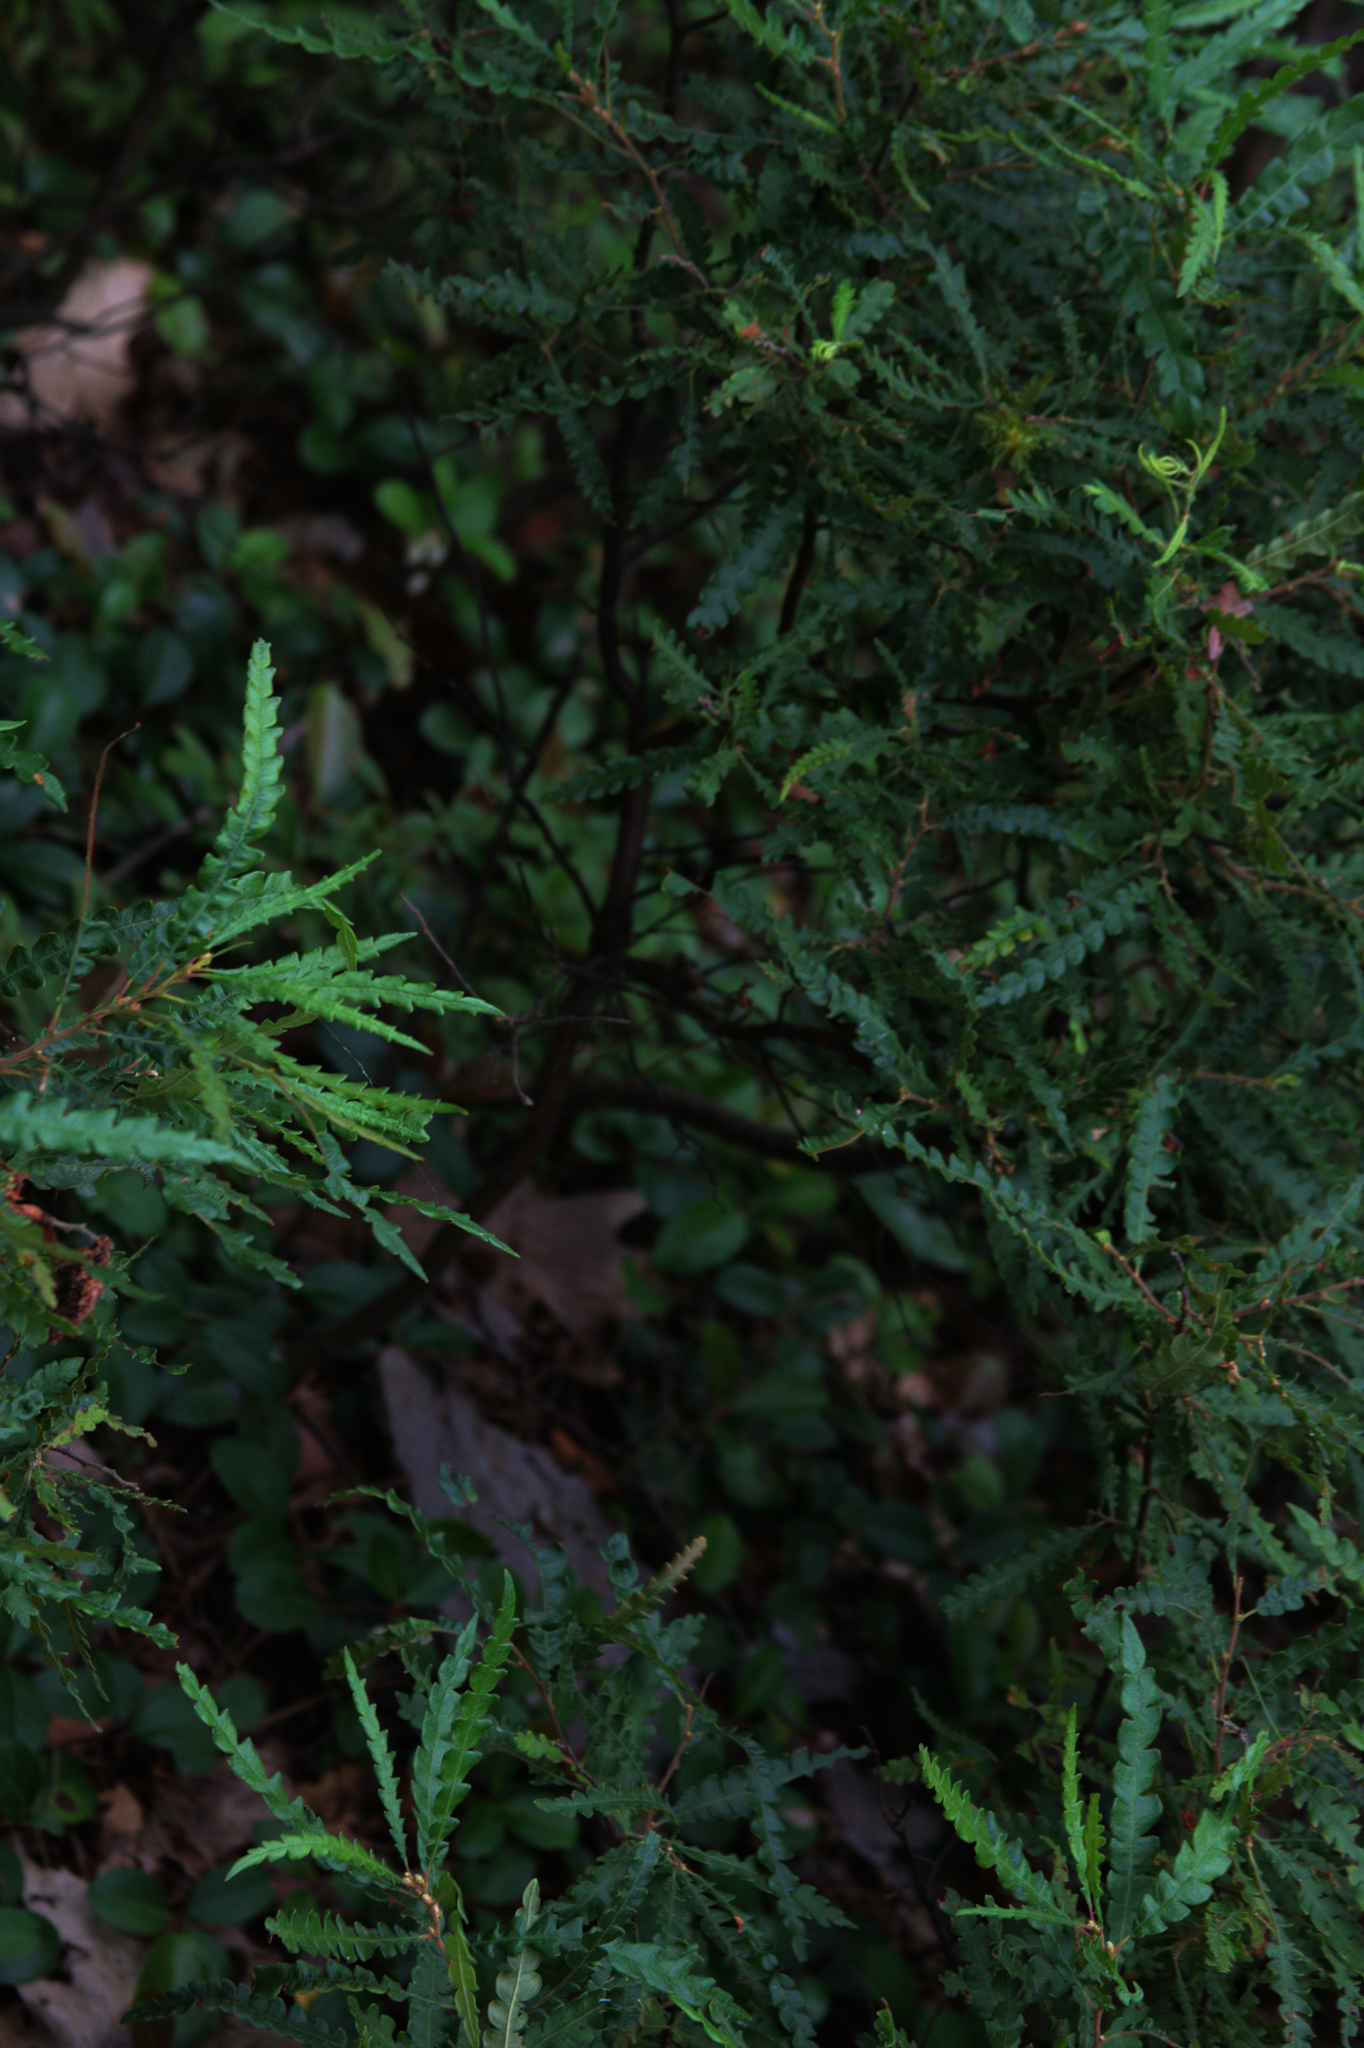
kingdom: Plantae
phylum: Tracheophyta
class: Magnoliopsida
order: Fagales
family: Myricaceae
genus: Comptonia
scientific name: Comptonia peregrina
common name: Sweet-fern
